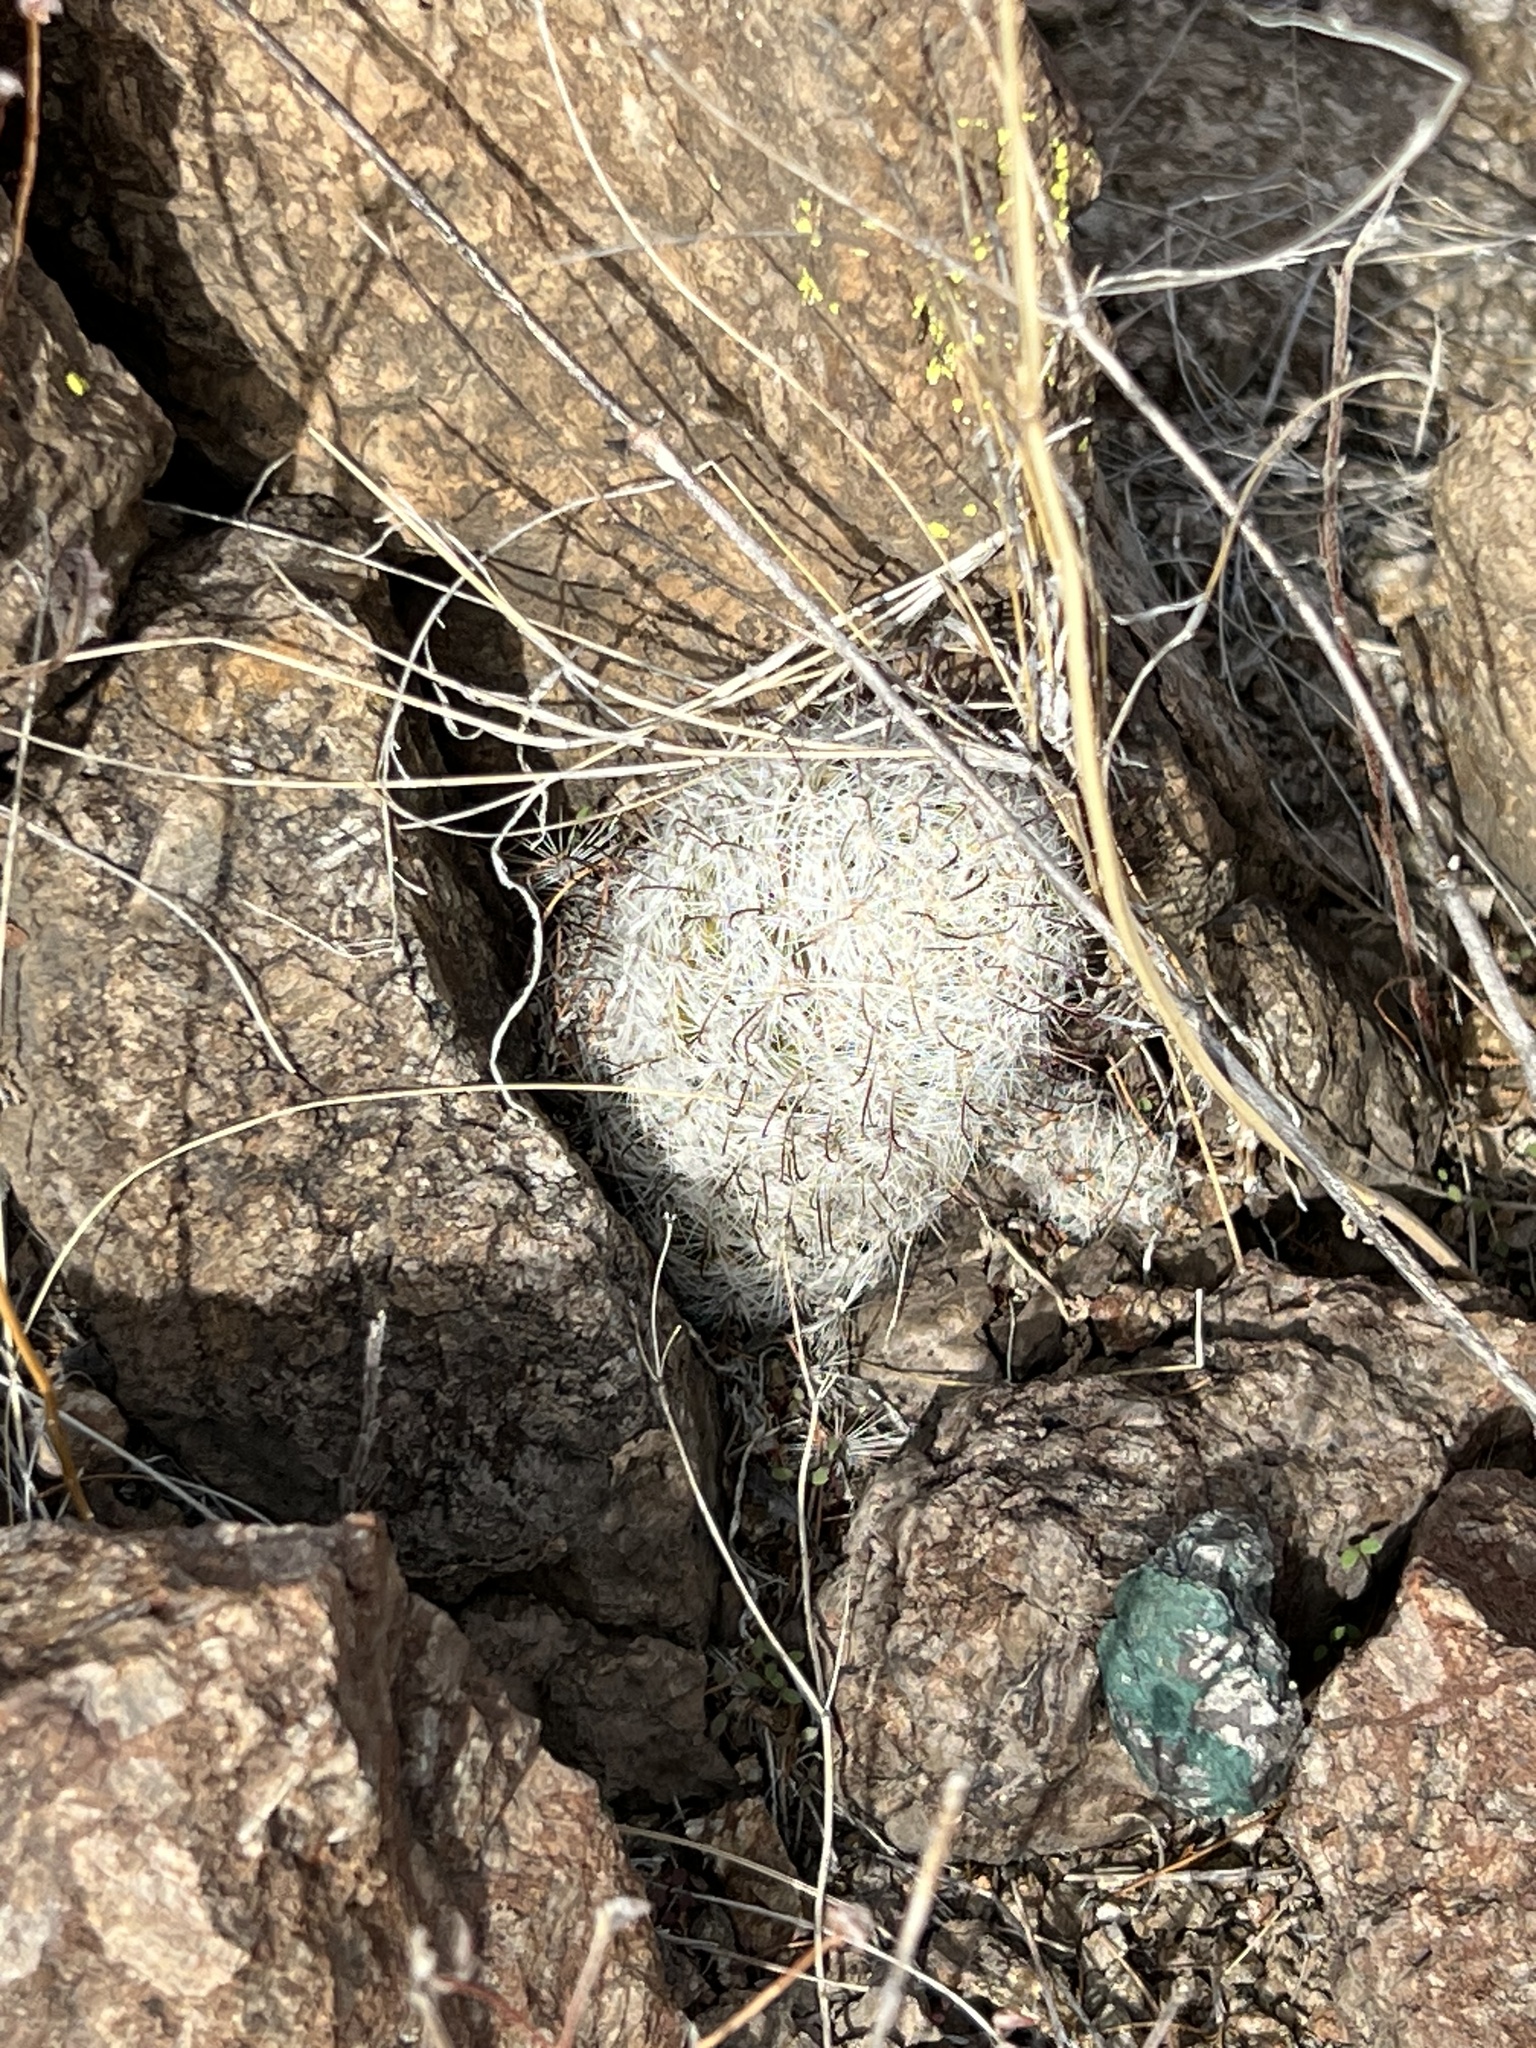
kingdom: Plantae
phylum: Tracheophyta
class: Magnoliopsida
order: Caryophyllales
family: Cactaceae
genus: Cochemiea
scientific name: Cochemiea grahamii
